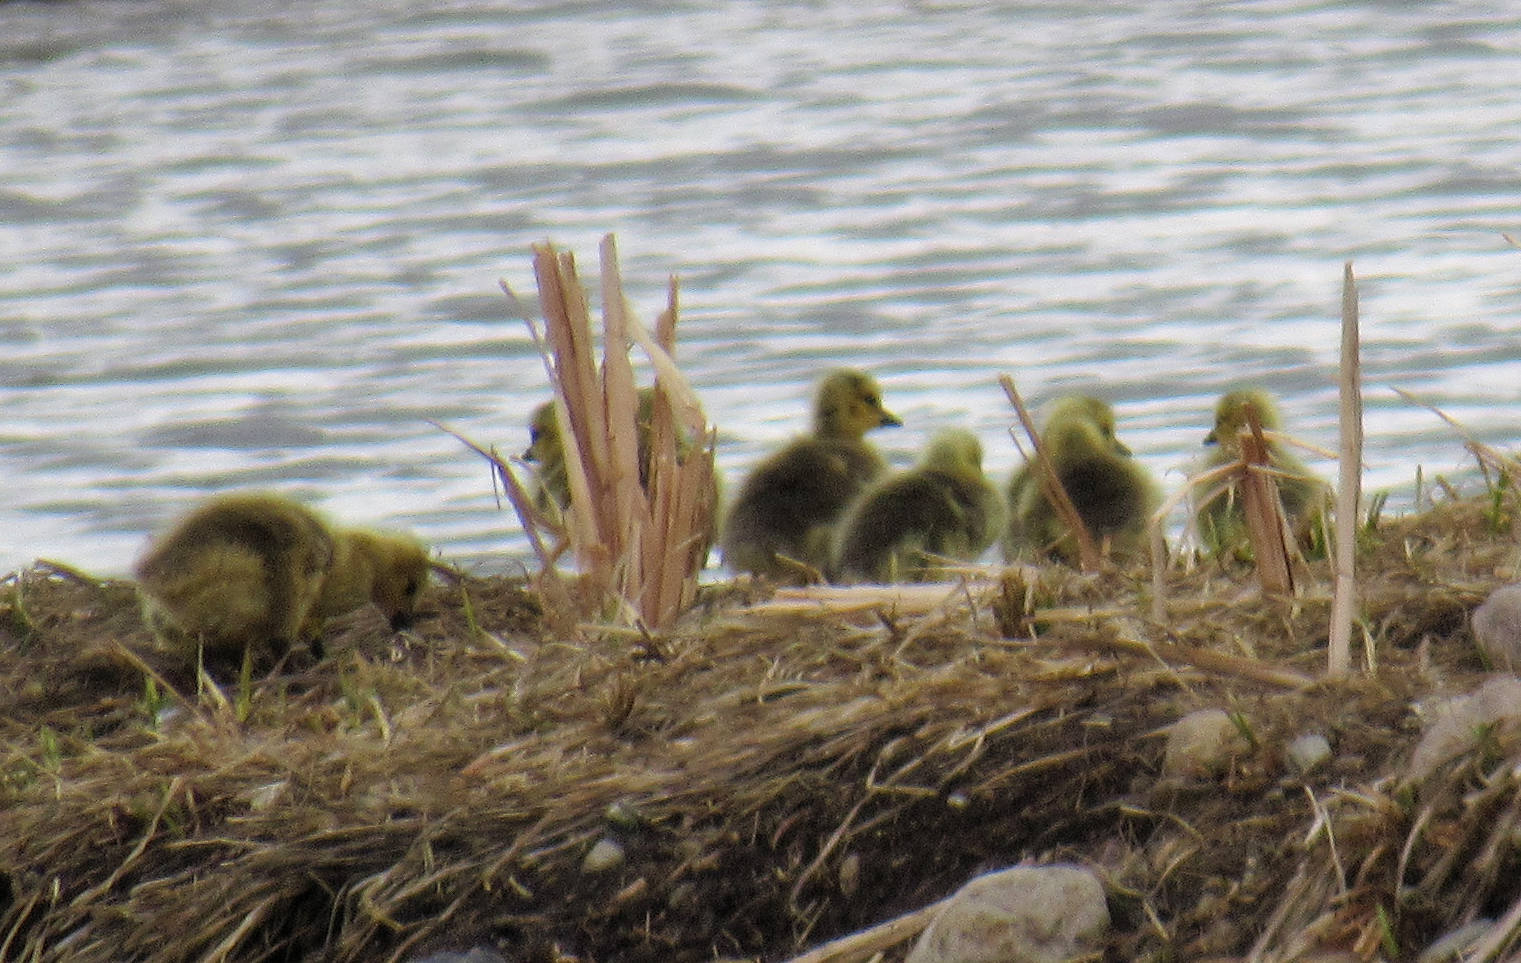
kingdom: Animalia
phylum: Chordata
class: Aves
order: Anseriformes
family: Anatidae
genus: Branta
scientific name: Branta canadensis
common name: Canada goose
